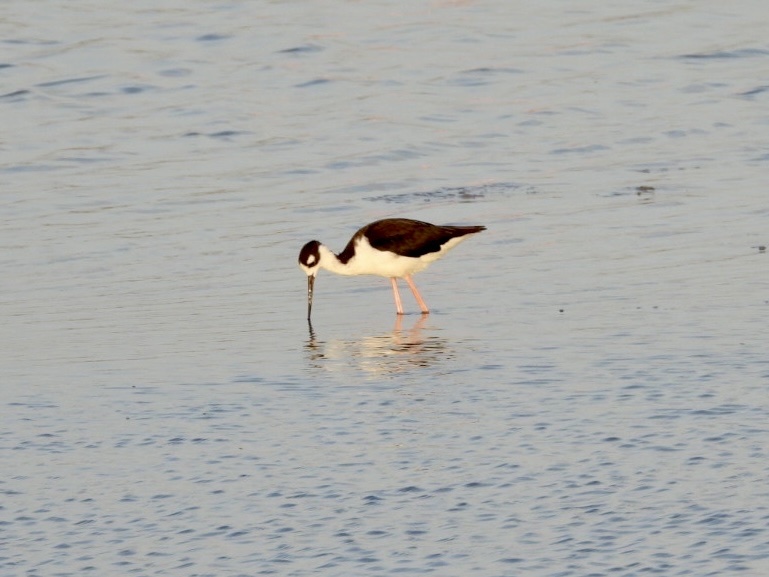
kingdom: Animalia
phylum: Chordata
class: Aves
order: Charadriiformes
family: Recurvirostridae
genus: Himantopus
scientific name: Himantopus mexicanus
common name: Black-necked stilt
